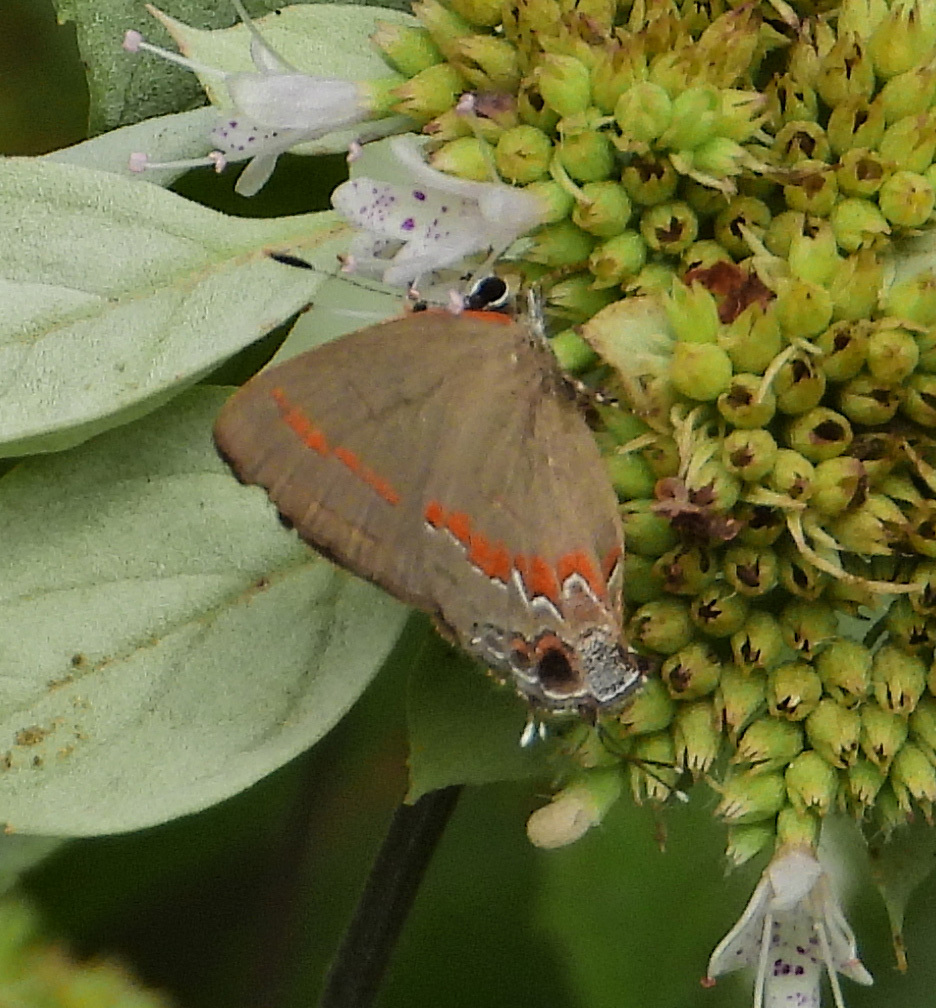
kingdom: Animalia
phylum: Arthropoda
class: Insecta
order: Lepidoptera
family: Lycaenidae
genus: Calycopis
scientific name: Calycopis cecrops
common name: Red-banded hairstreak
